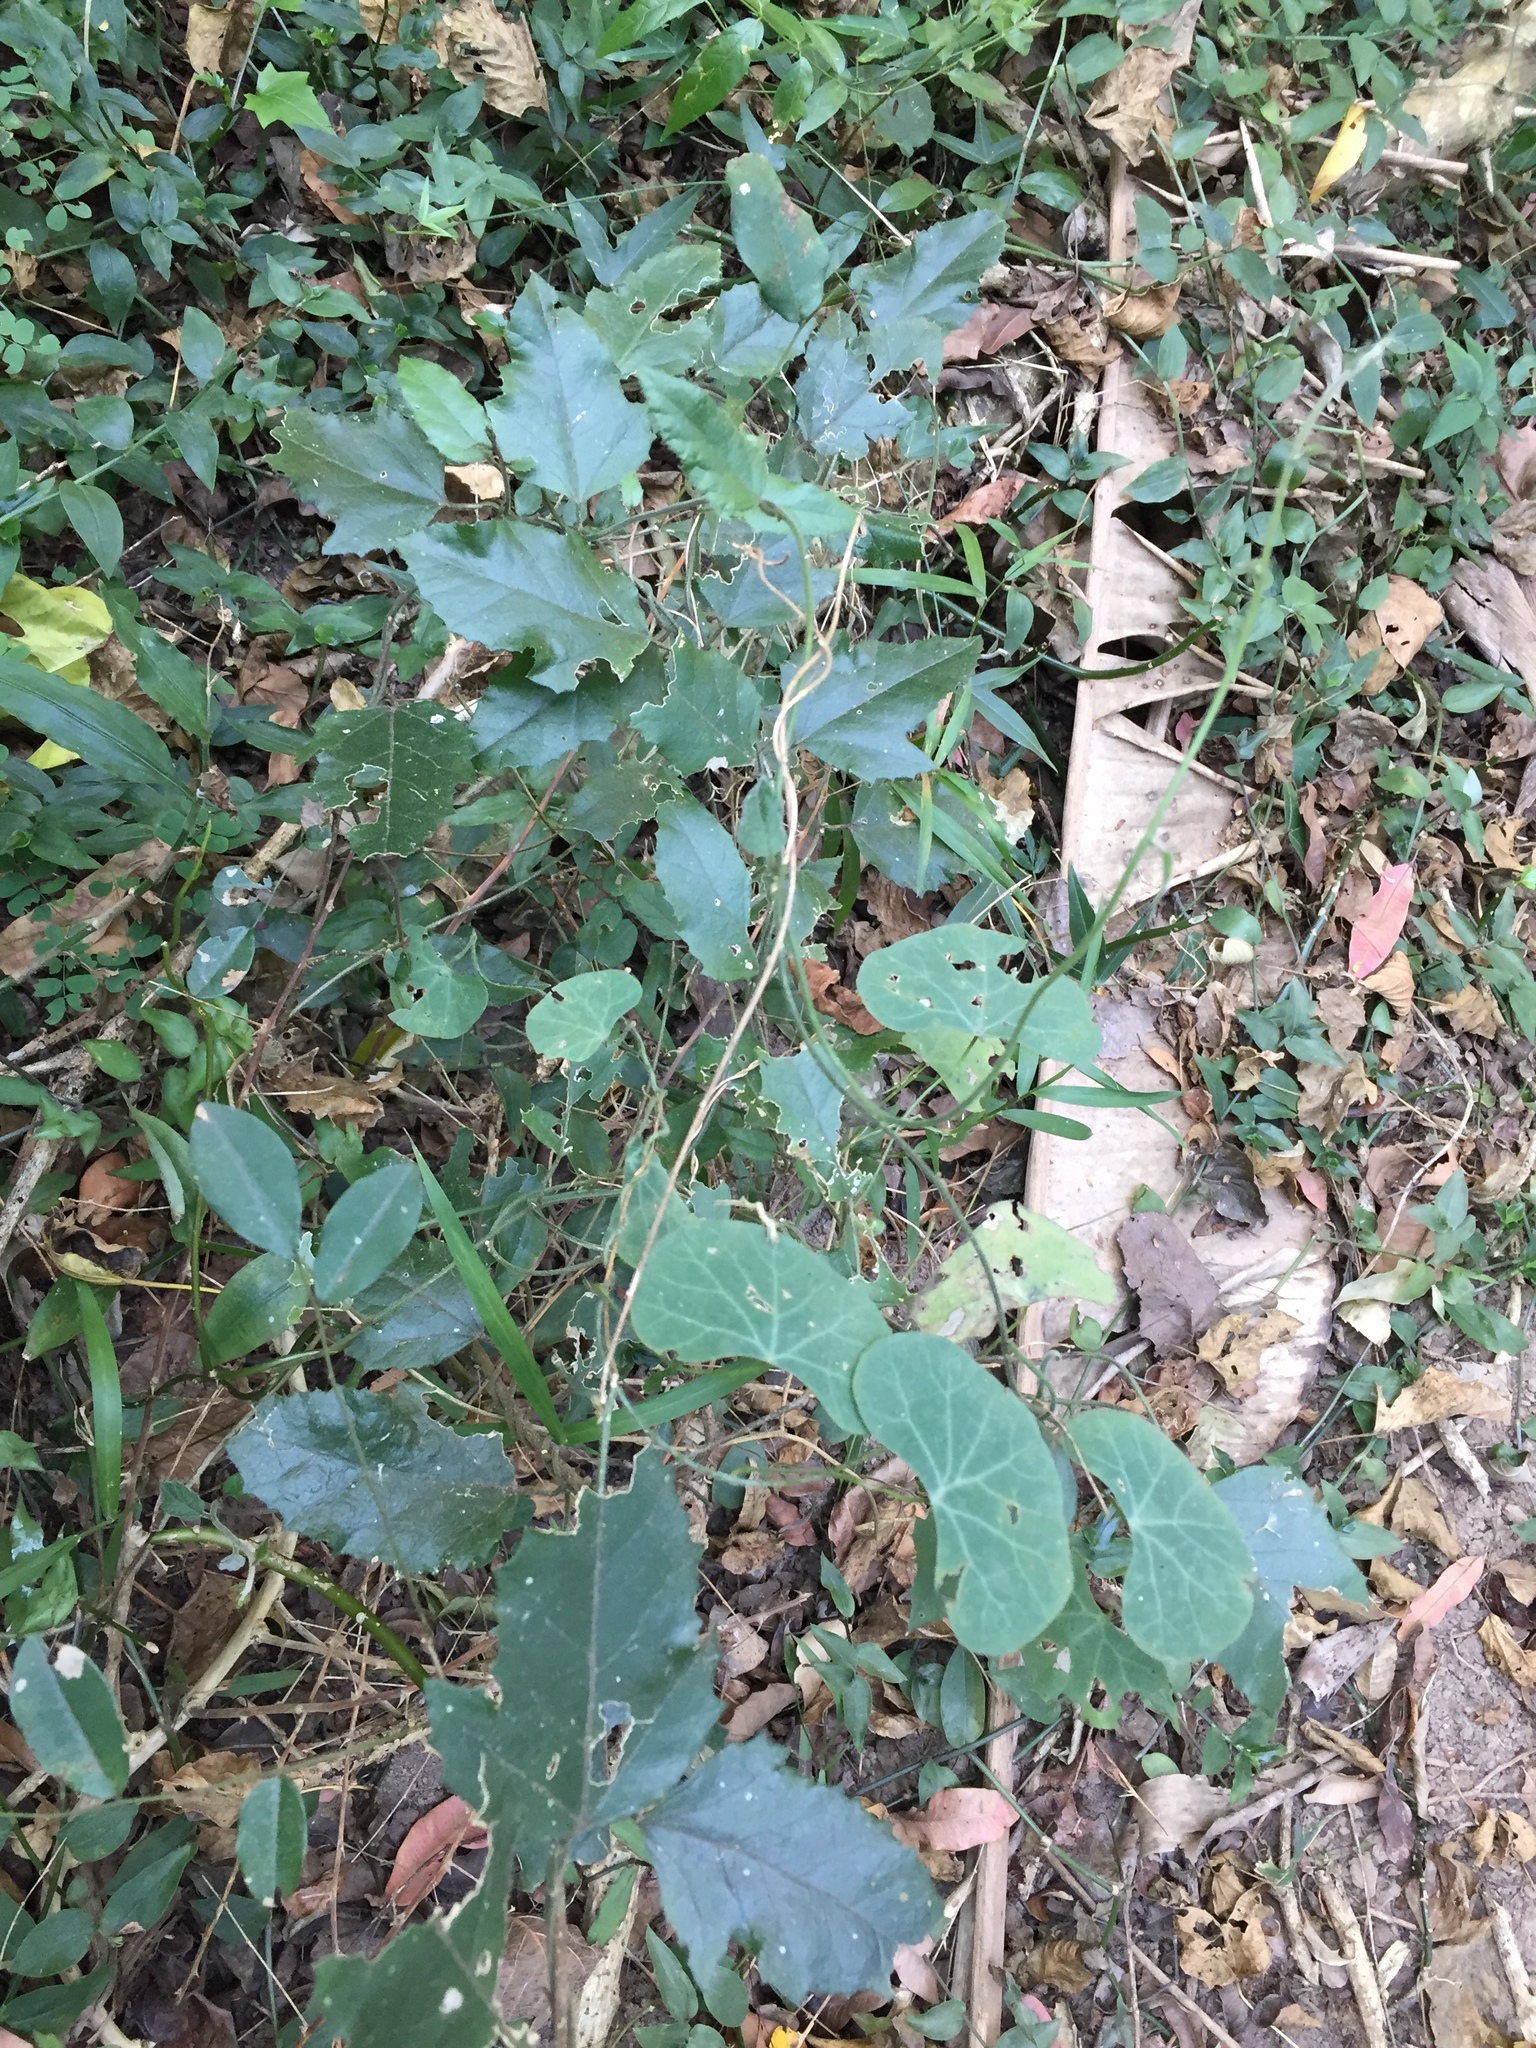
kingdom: Plantae
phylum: Tracheophyta
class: Magnoliopsida
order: Icacinales
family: Icacinaceae
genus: Pyrenacantha
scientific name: Pyrenacantha scandens
